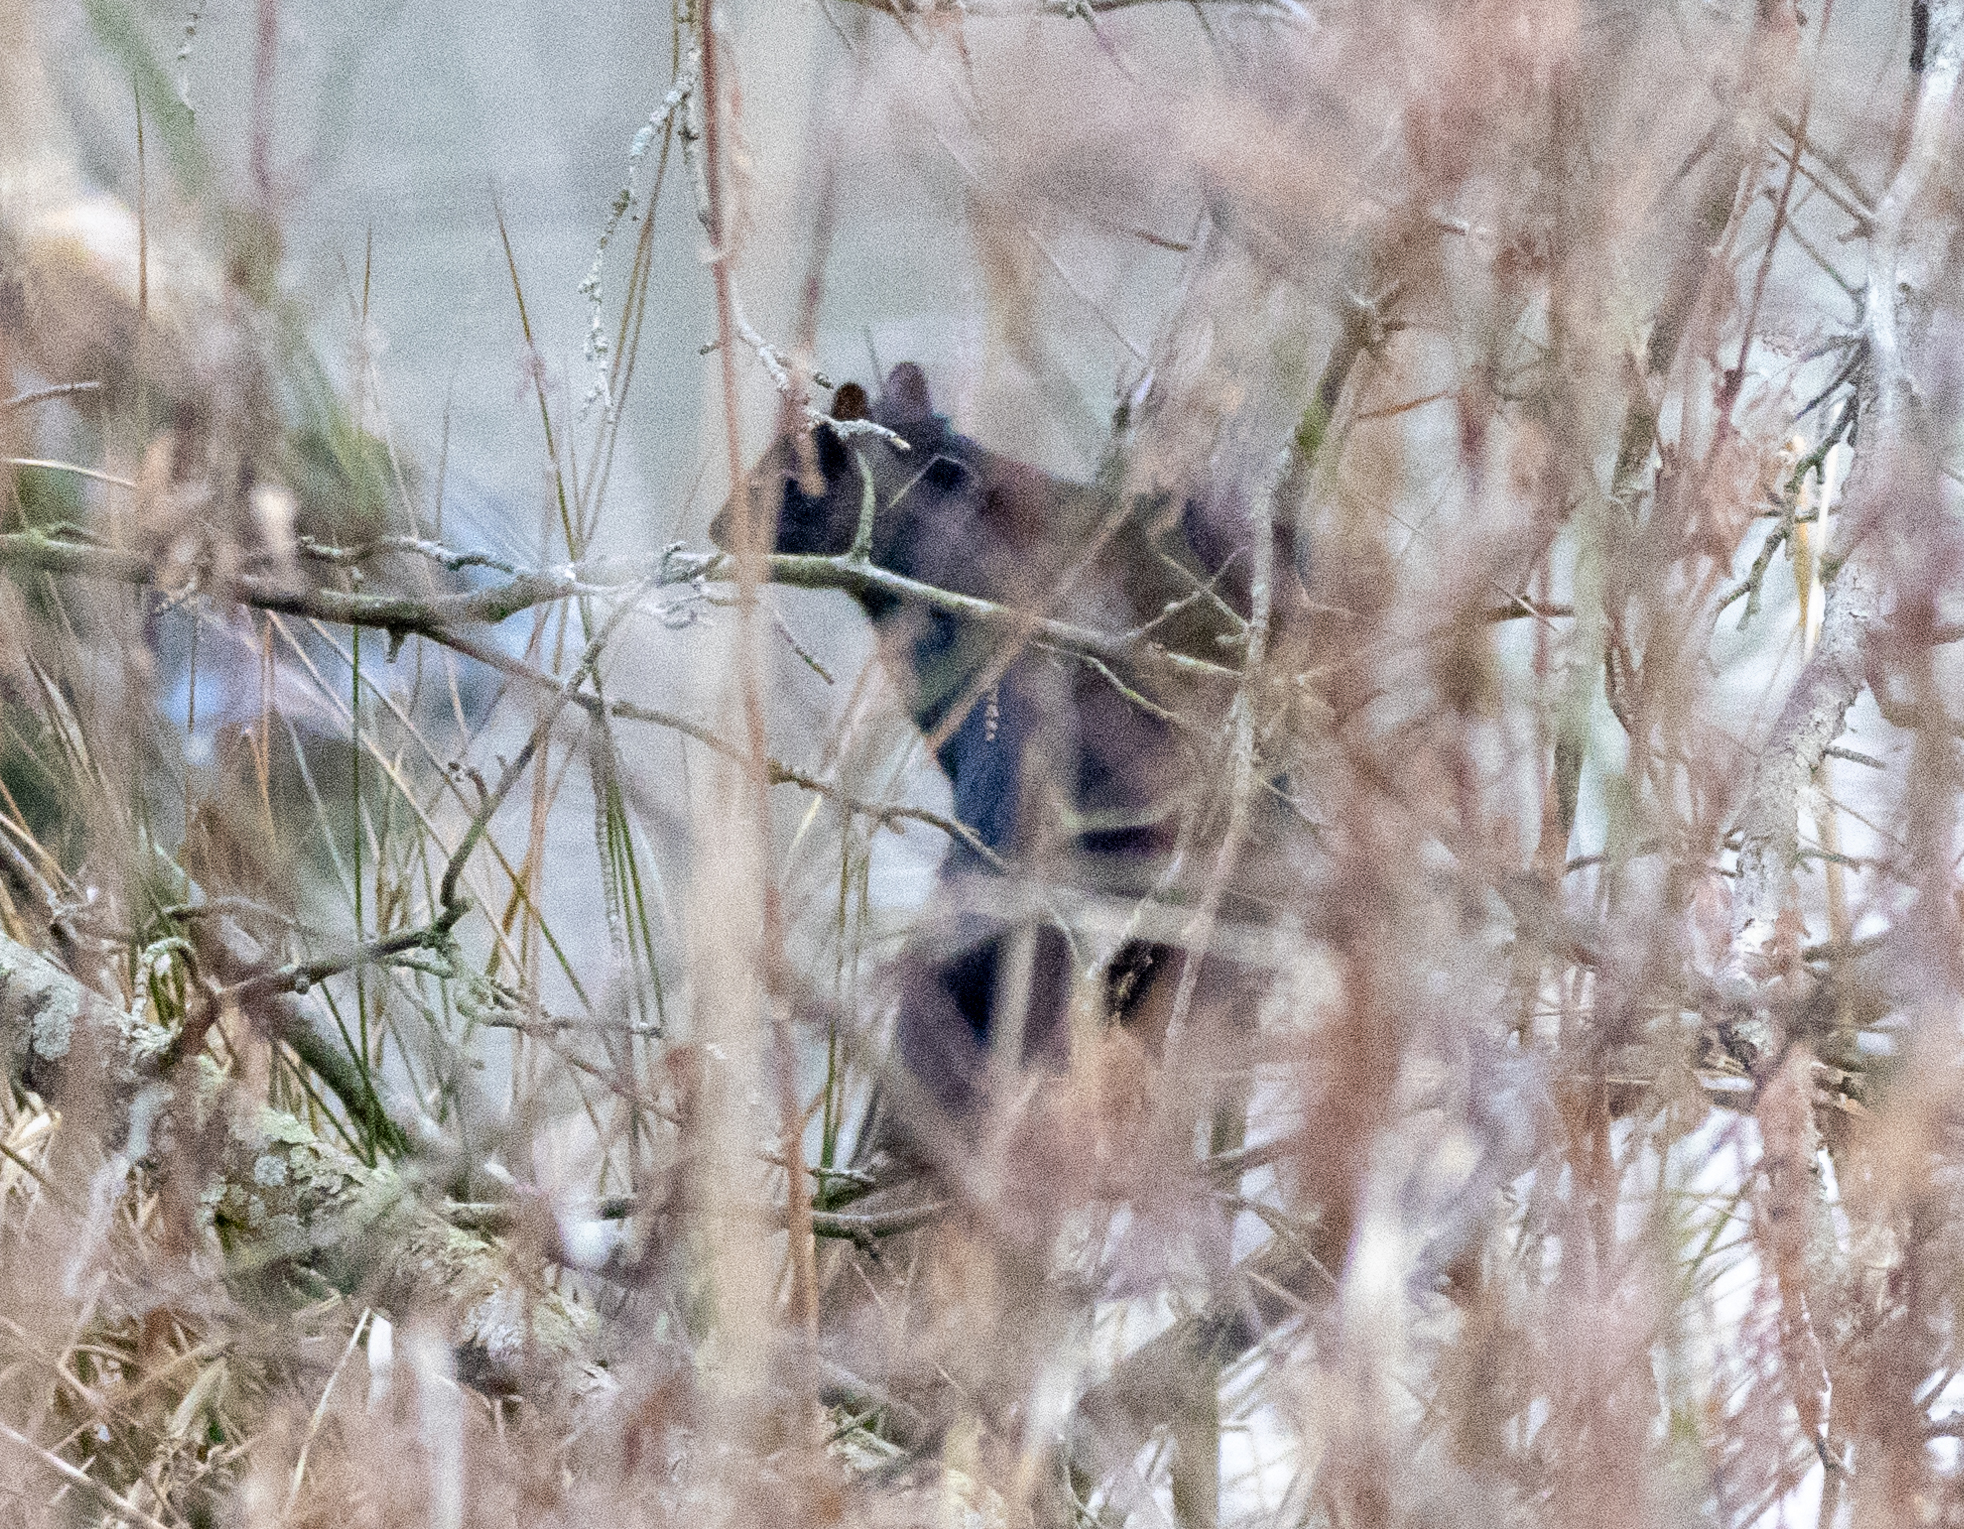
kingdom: Animalia
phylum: Chordata
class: Mammalia
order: Rodentia
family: Sciuridae
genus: Sciurus
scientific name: Sciurus carolinensis
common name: Eastern gray squirrel
